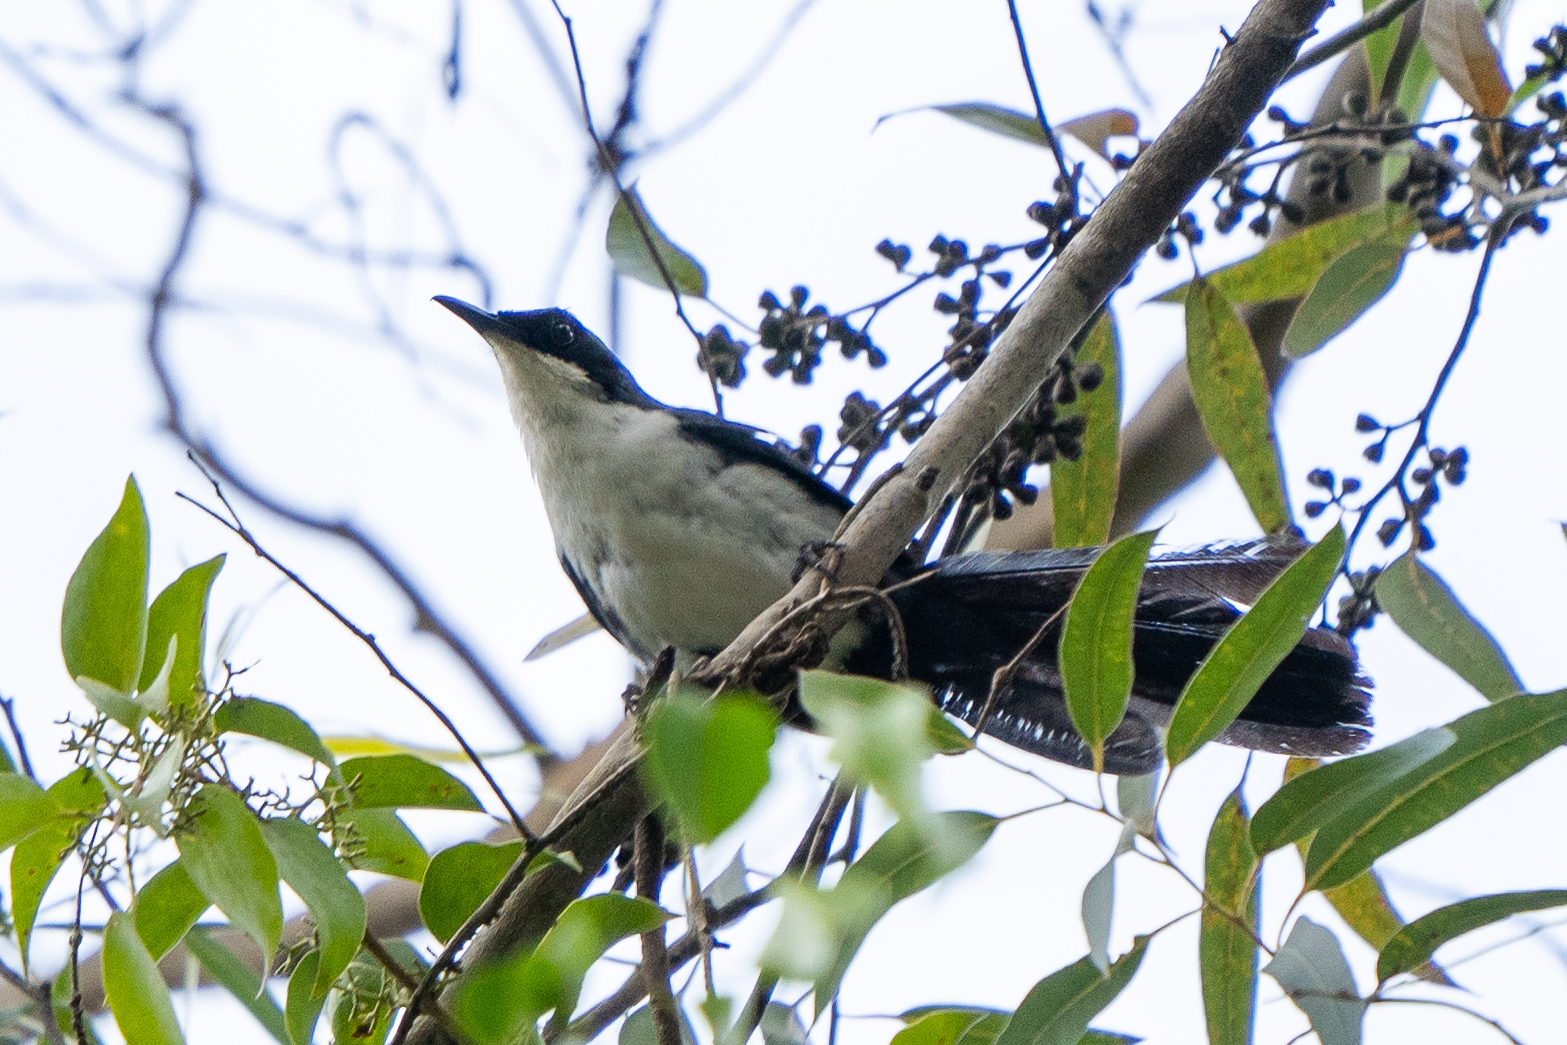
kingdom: Animalia
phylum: Chordata
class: Aves
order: Passeriformes
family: Mimidae
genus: Melanotis
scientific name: Melanotis hypoleucus
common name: Blue-and-white mockingbird
